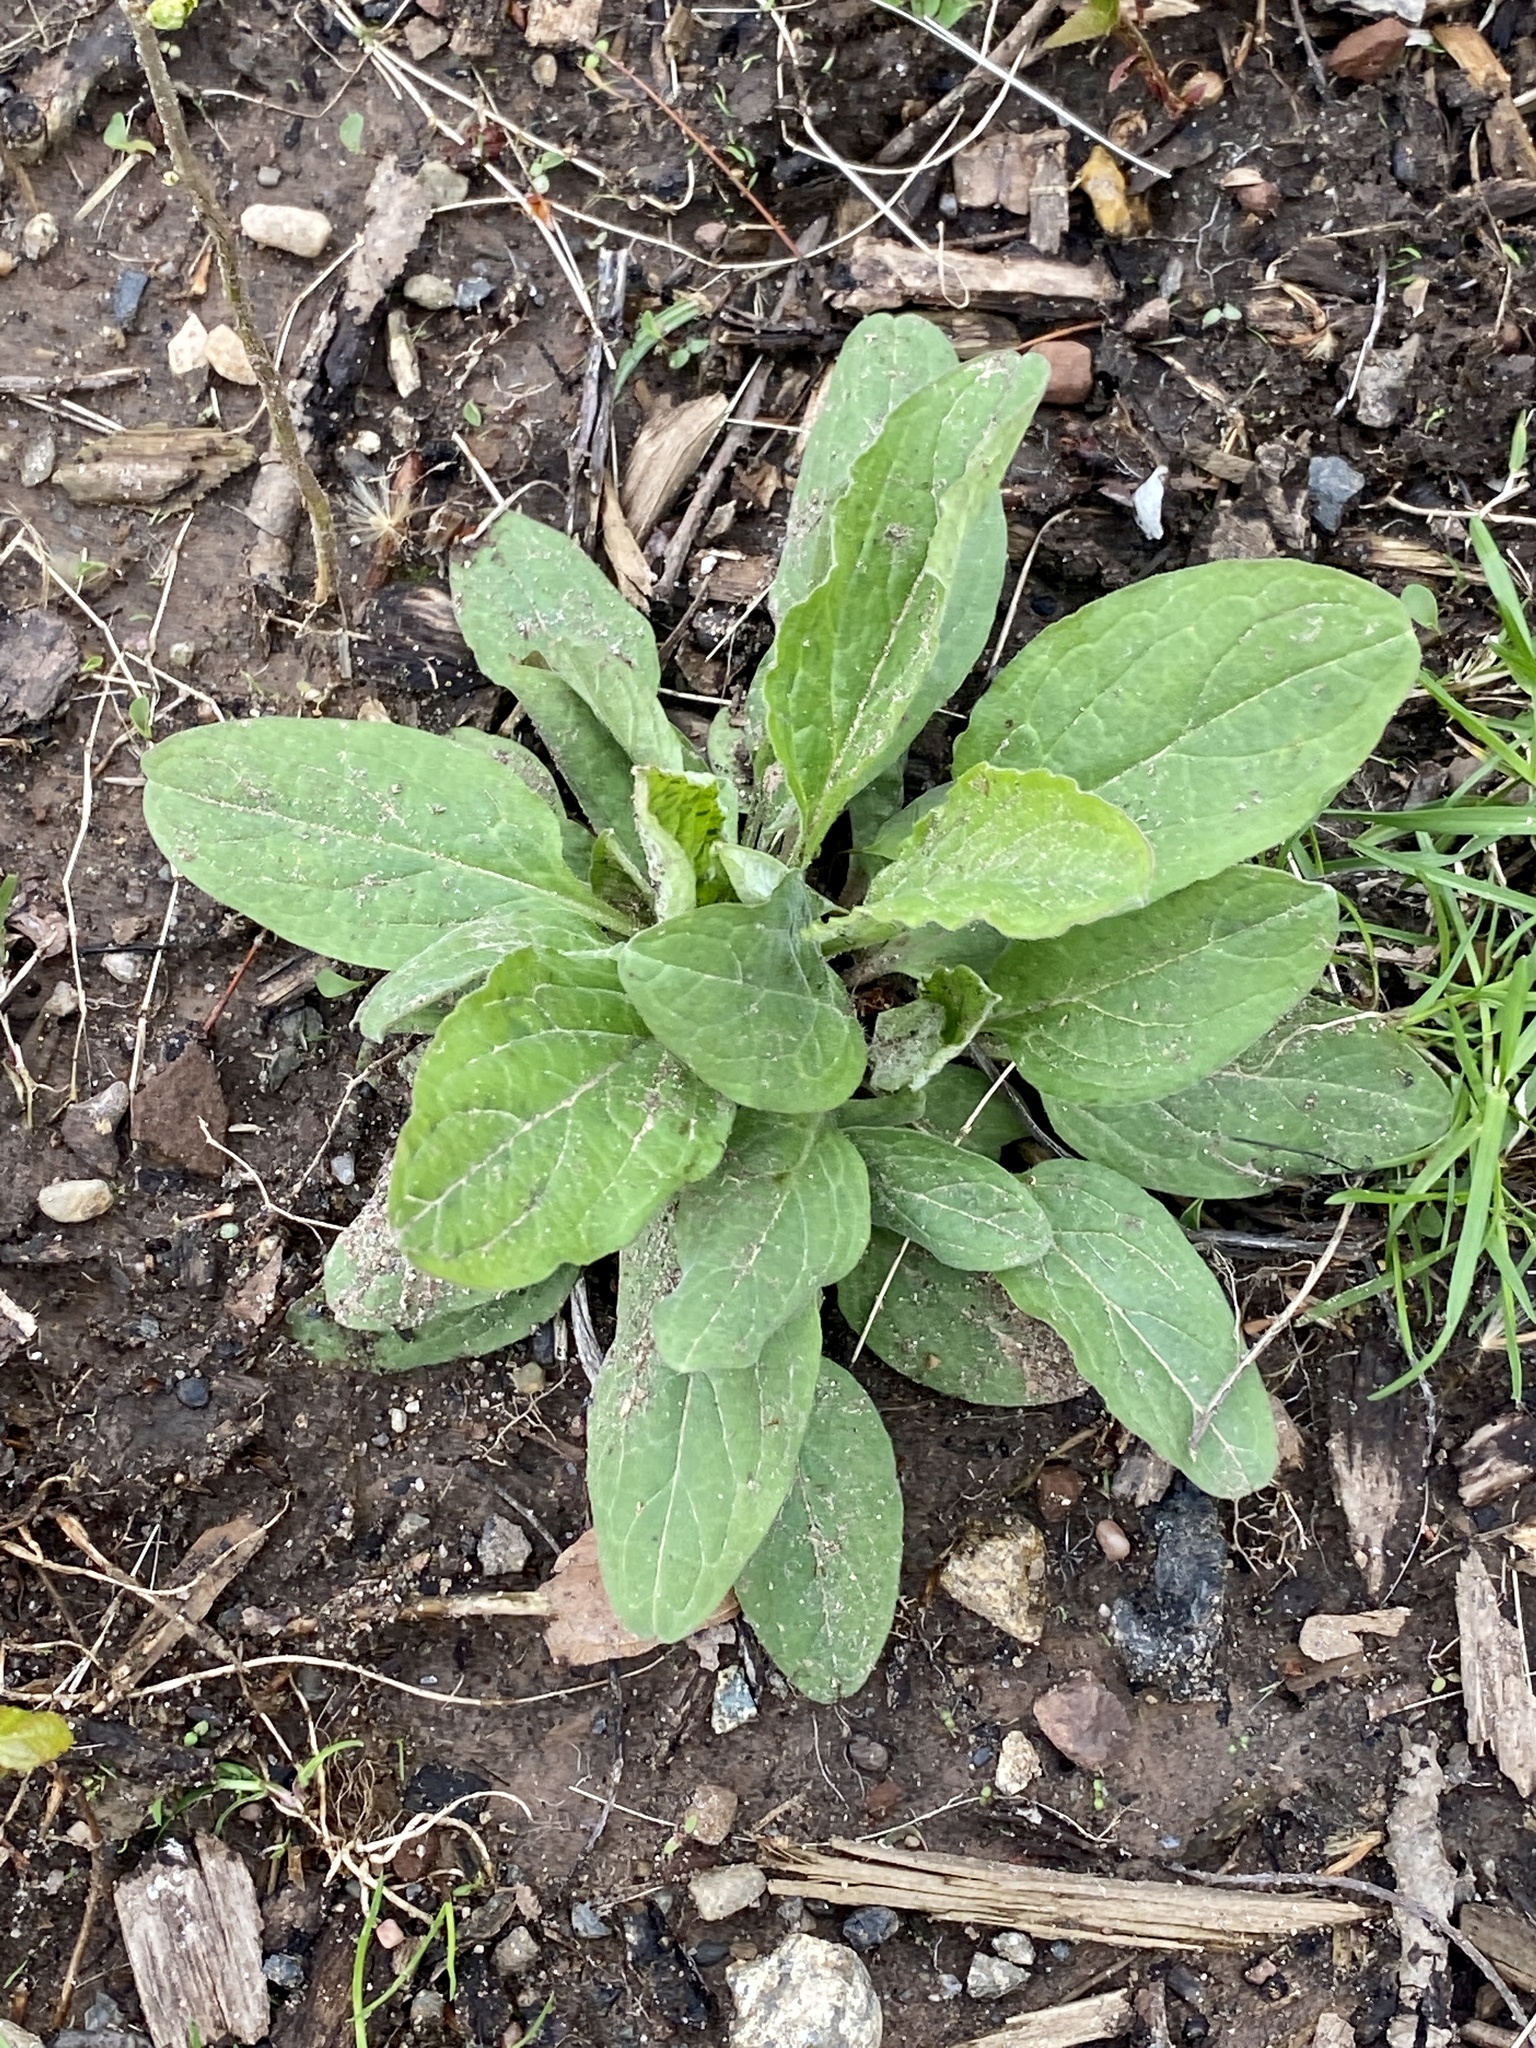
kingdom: Plantae
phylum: Tracheophyta
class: Magnoliopsida
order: Boraginales
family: Boraginaceae
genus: Hackelia
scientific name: Hackelia virginiana
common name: Beggar's-lice
